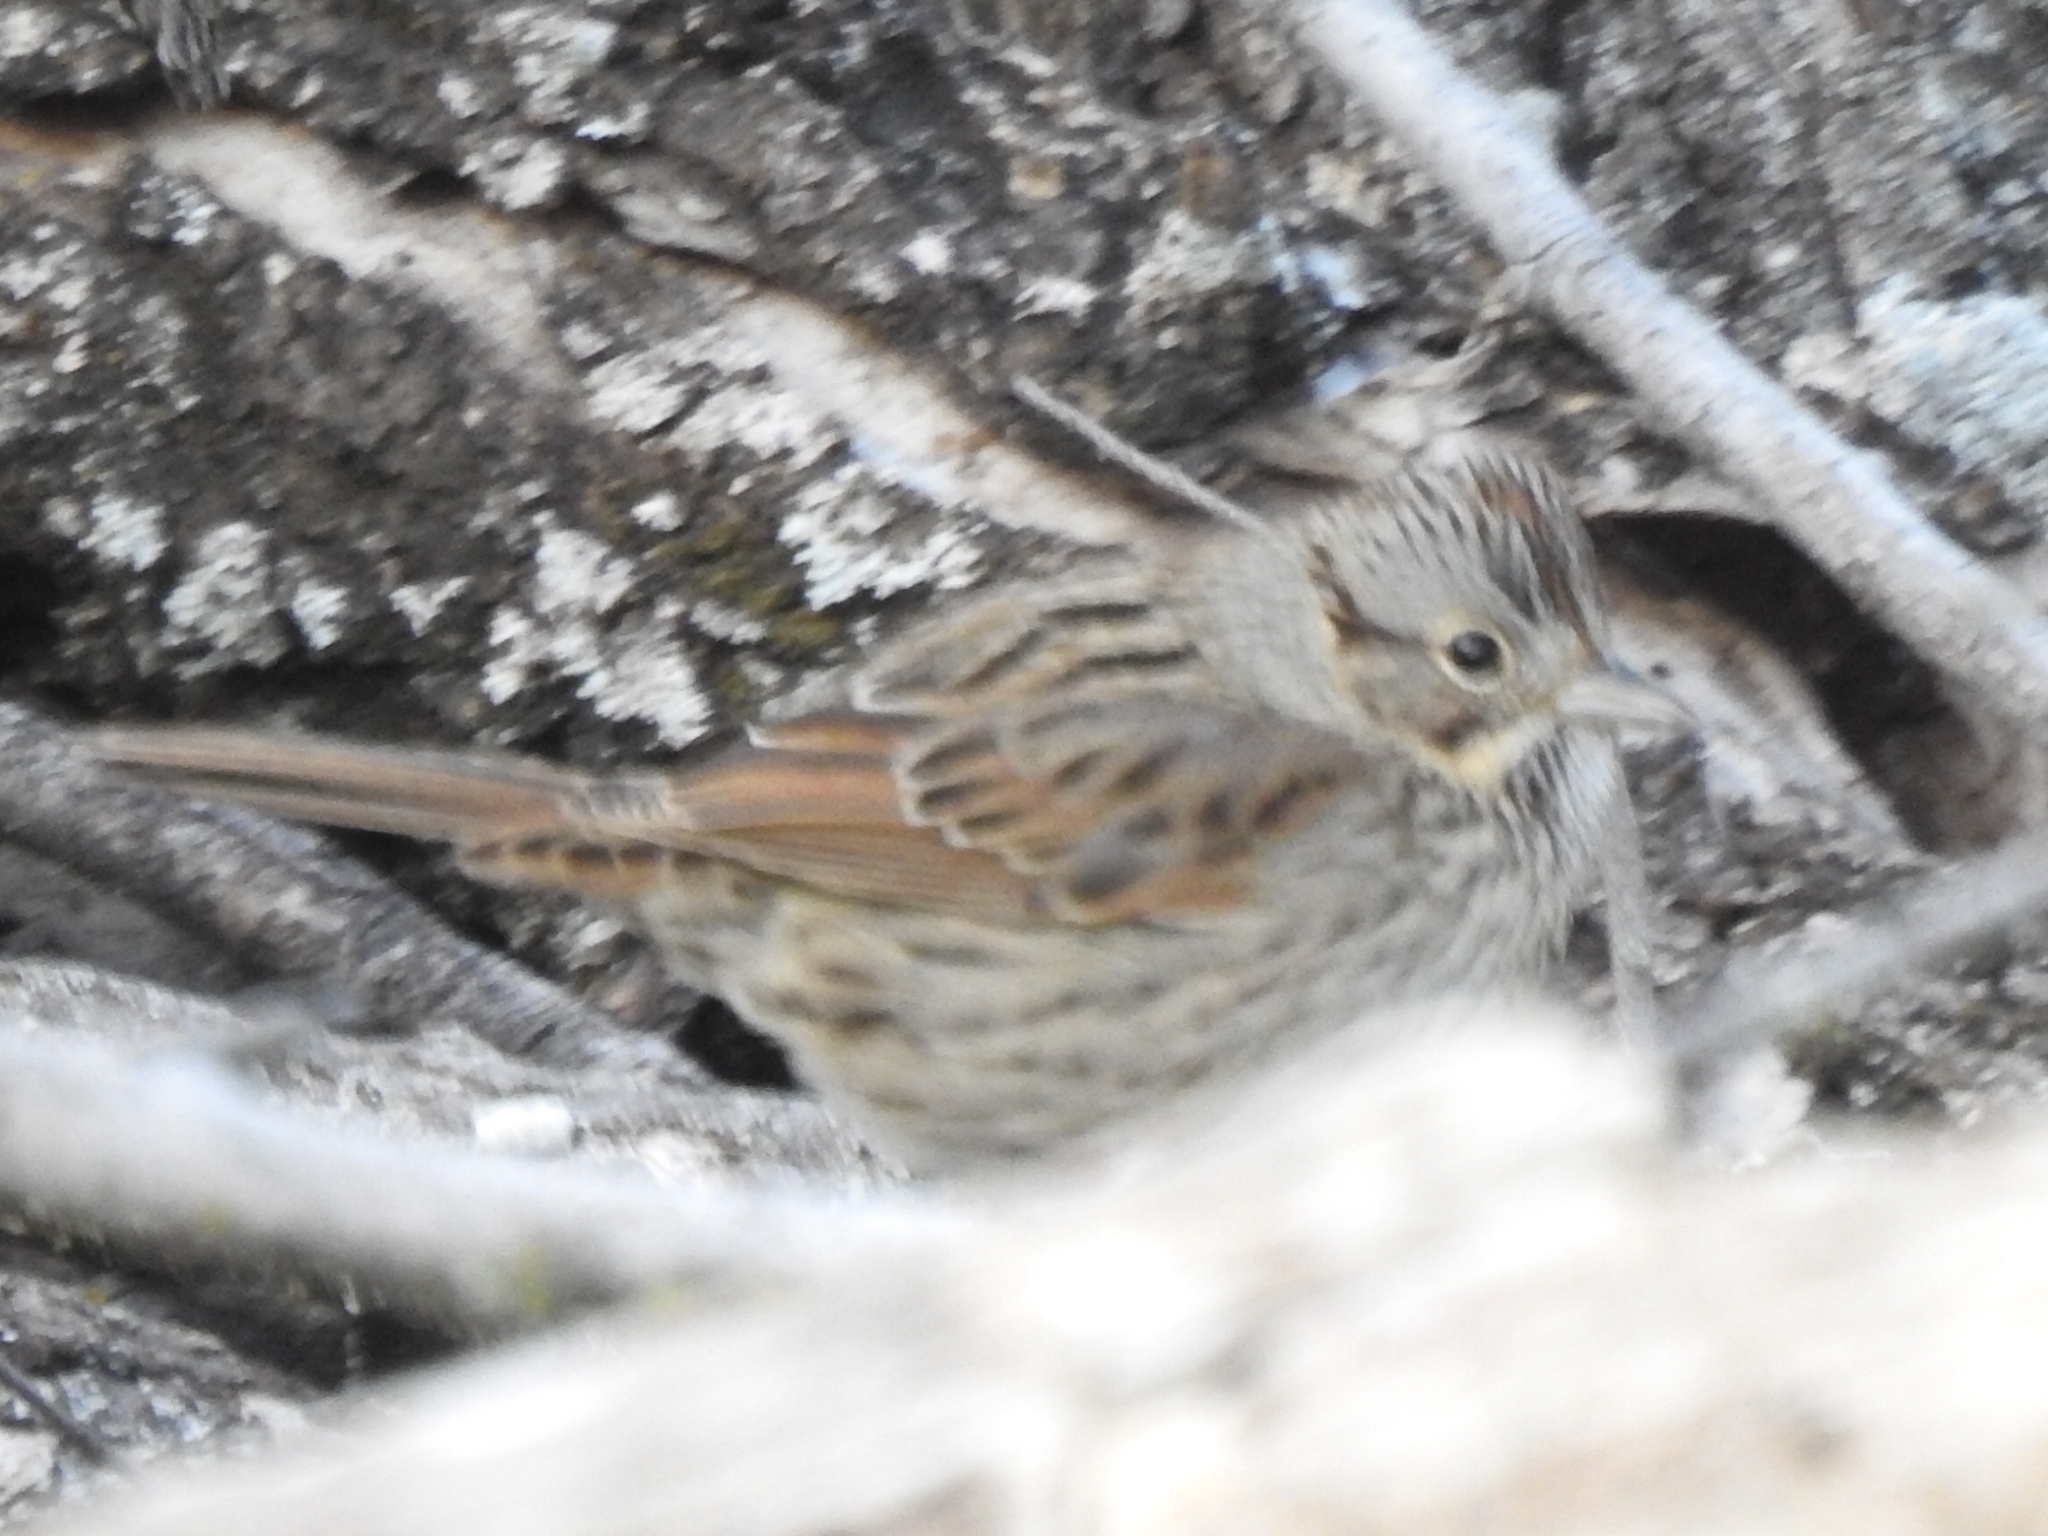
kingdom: Animalia
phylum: Chordata
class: Aves
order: Passeriformes
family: Passerellidae
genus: Melospiza
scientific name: Melospiza lincolnii
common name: Lincoln's sparrow
